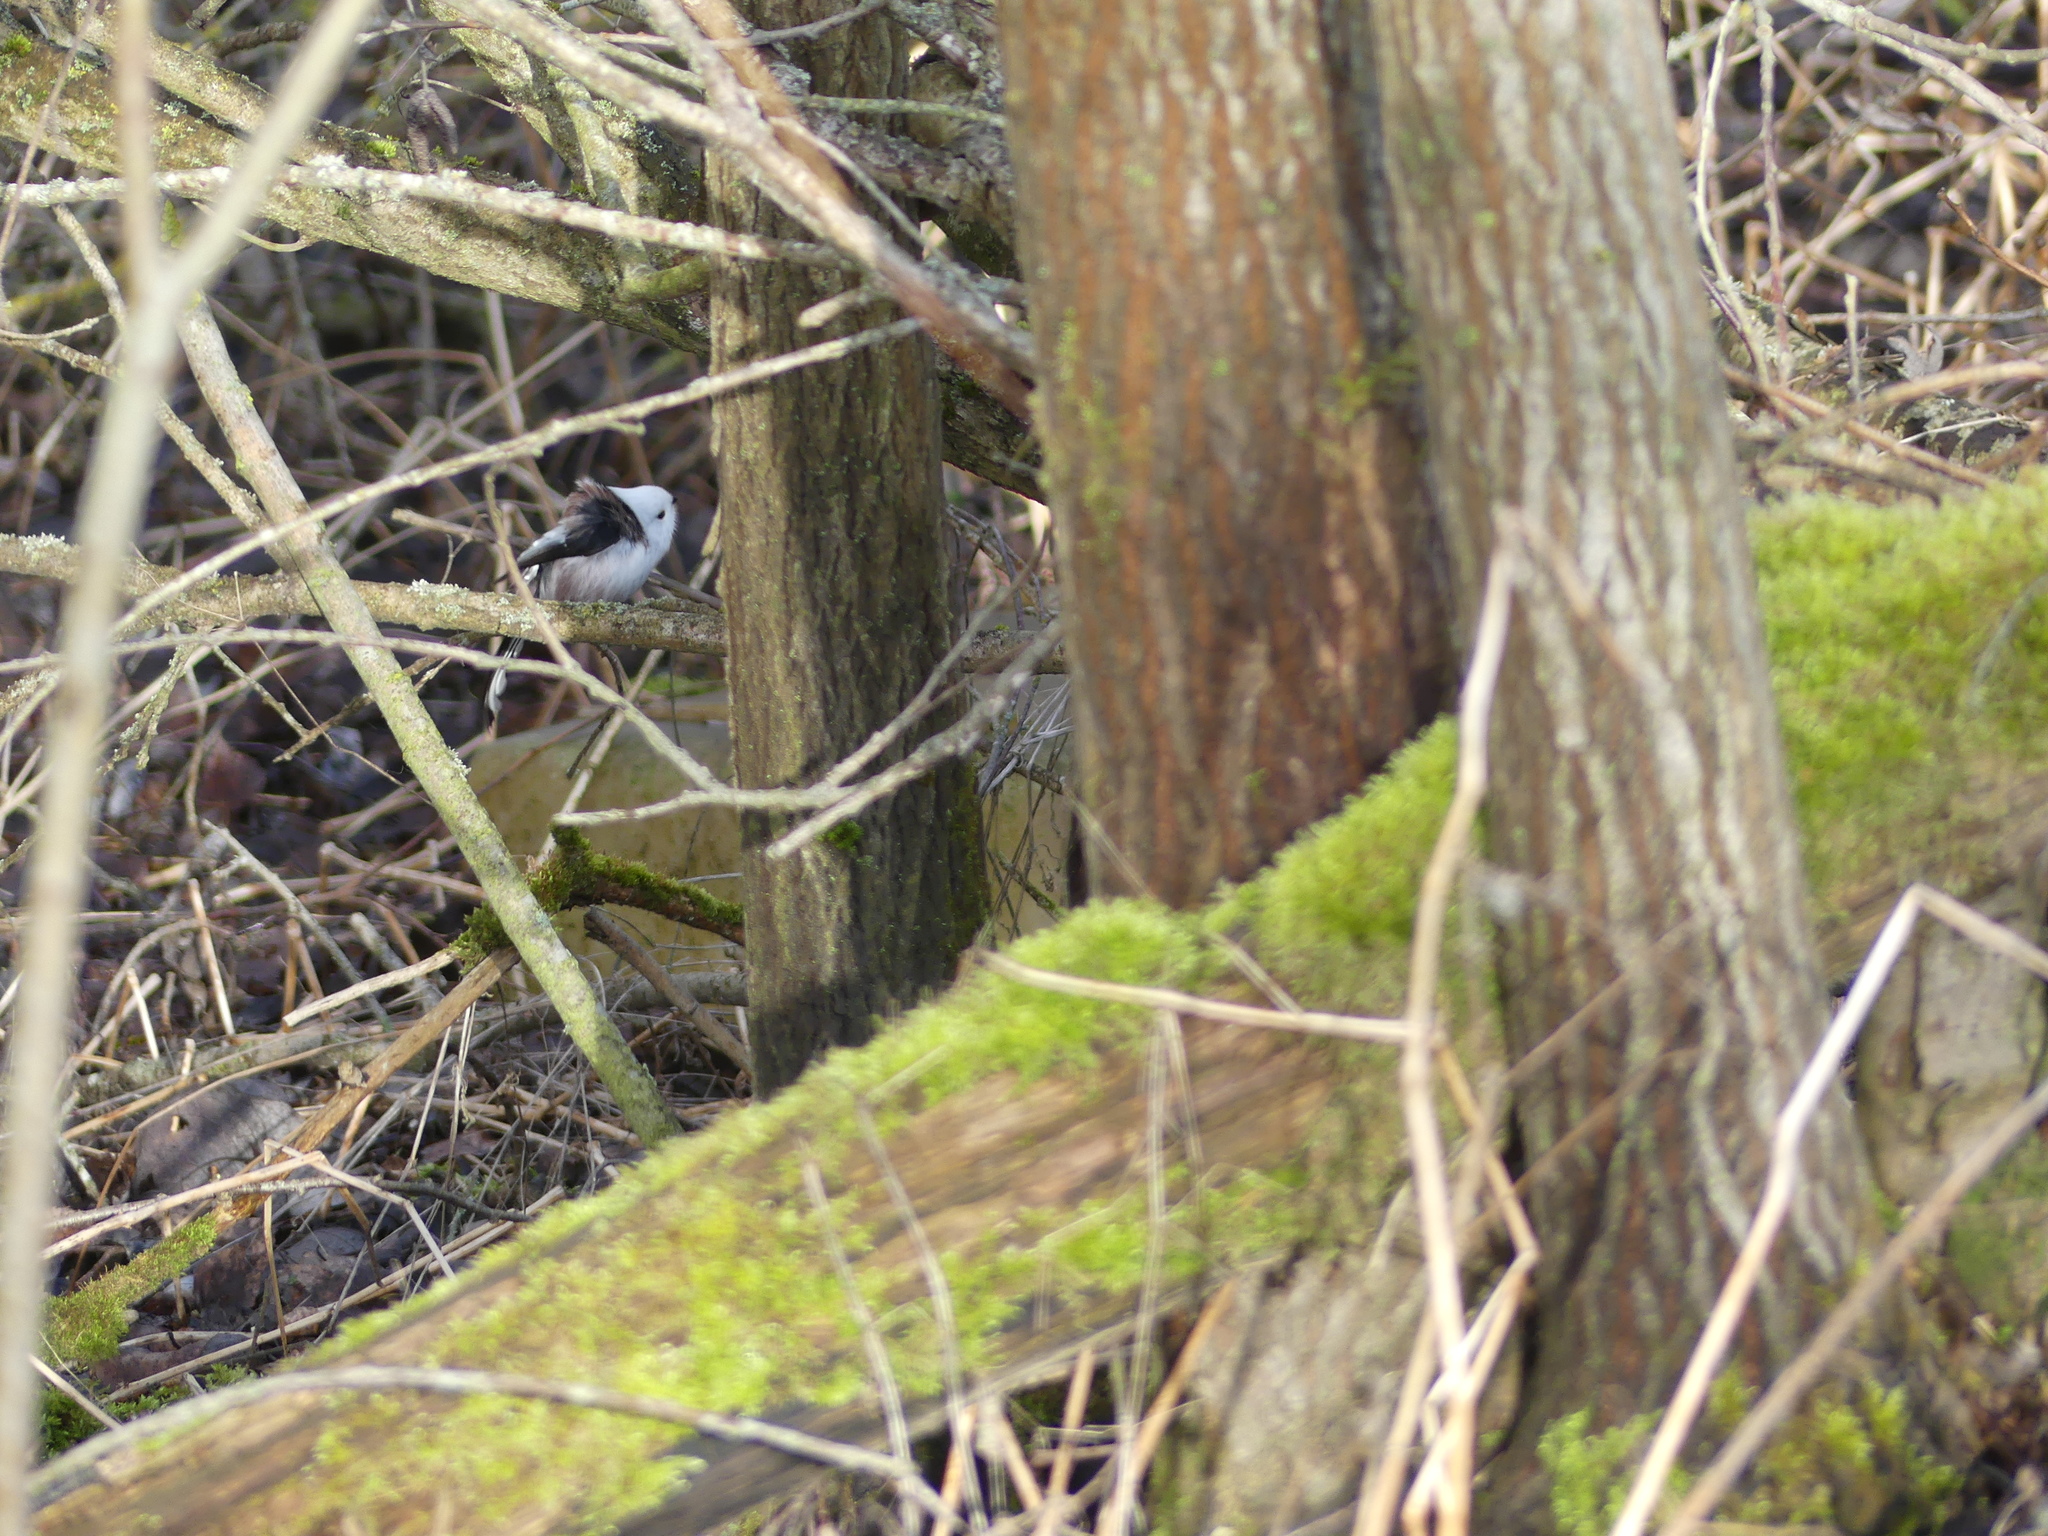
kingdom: Animalia
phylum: Chordata
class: Aves
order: Passeriformes
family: Aegithalidae
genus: Aegithalos
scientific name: Aegithalos caudatus
